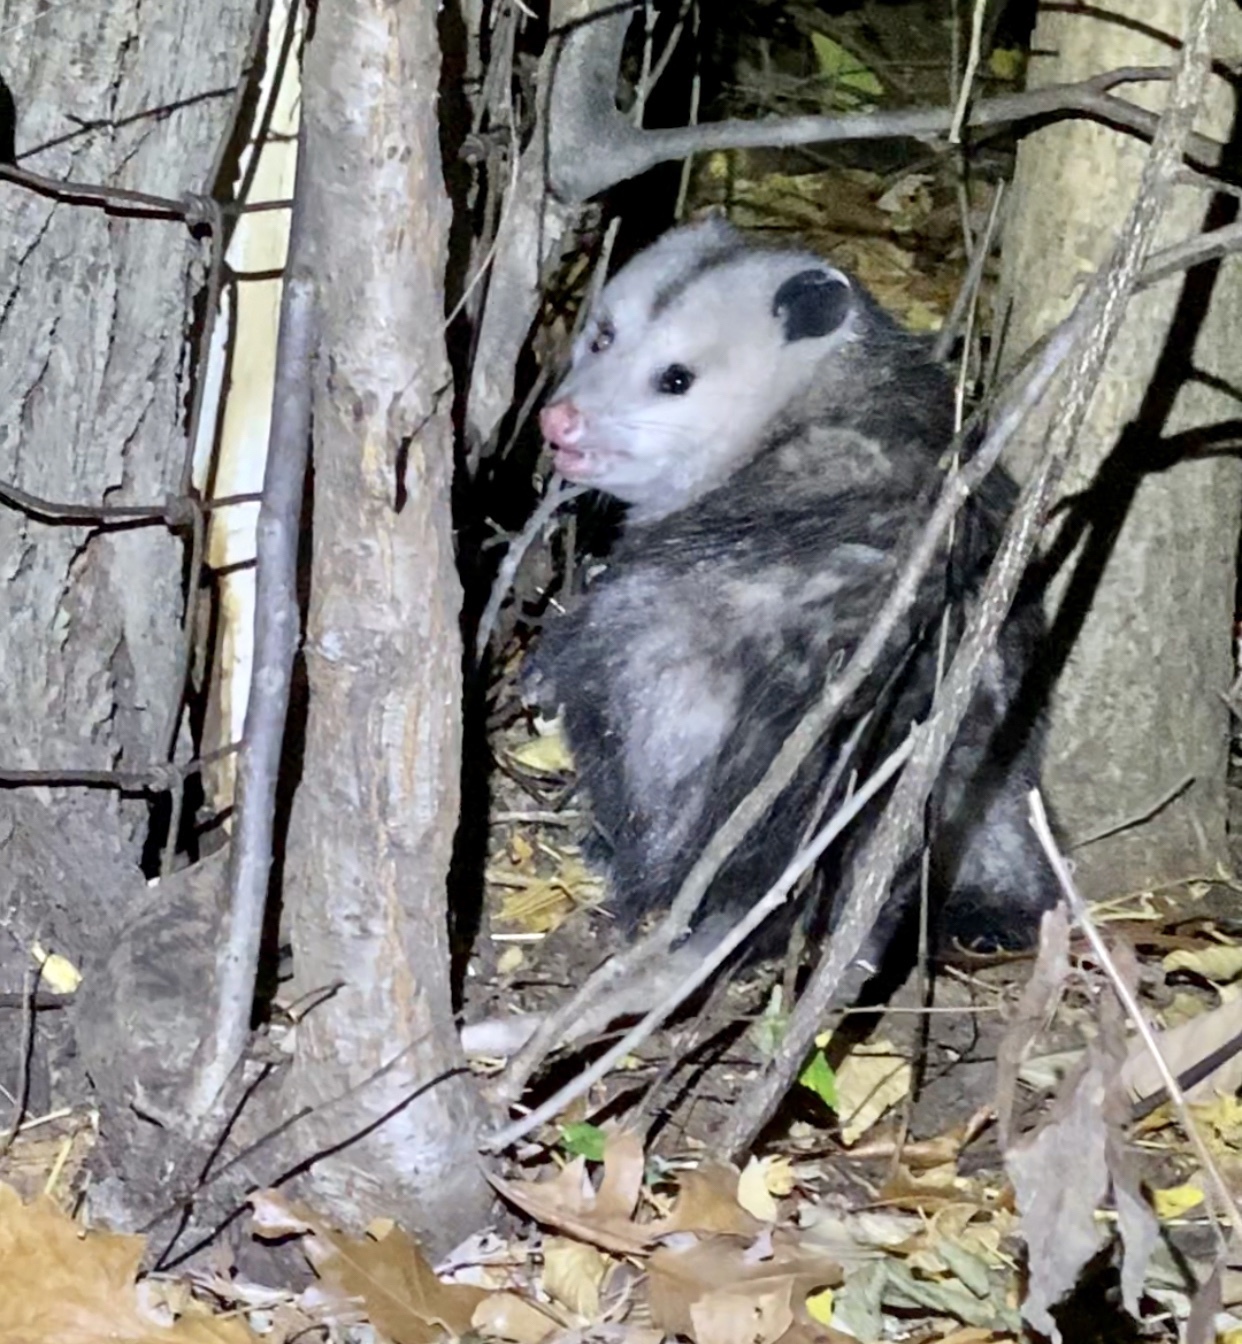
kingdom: Animalia
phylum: Chordata
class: Mammalia
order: Didelphimorphia
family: Didelphidae
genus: Didelphis
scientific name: Didelphis virginiana
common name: Virginia opossum
